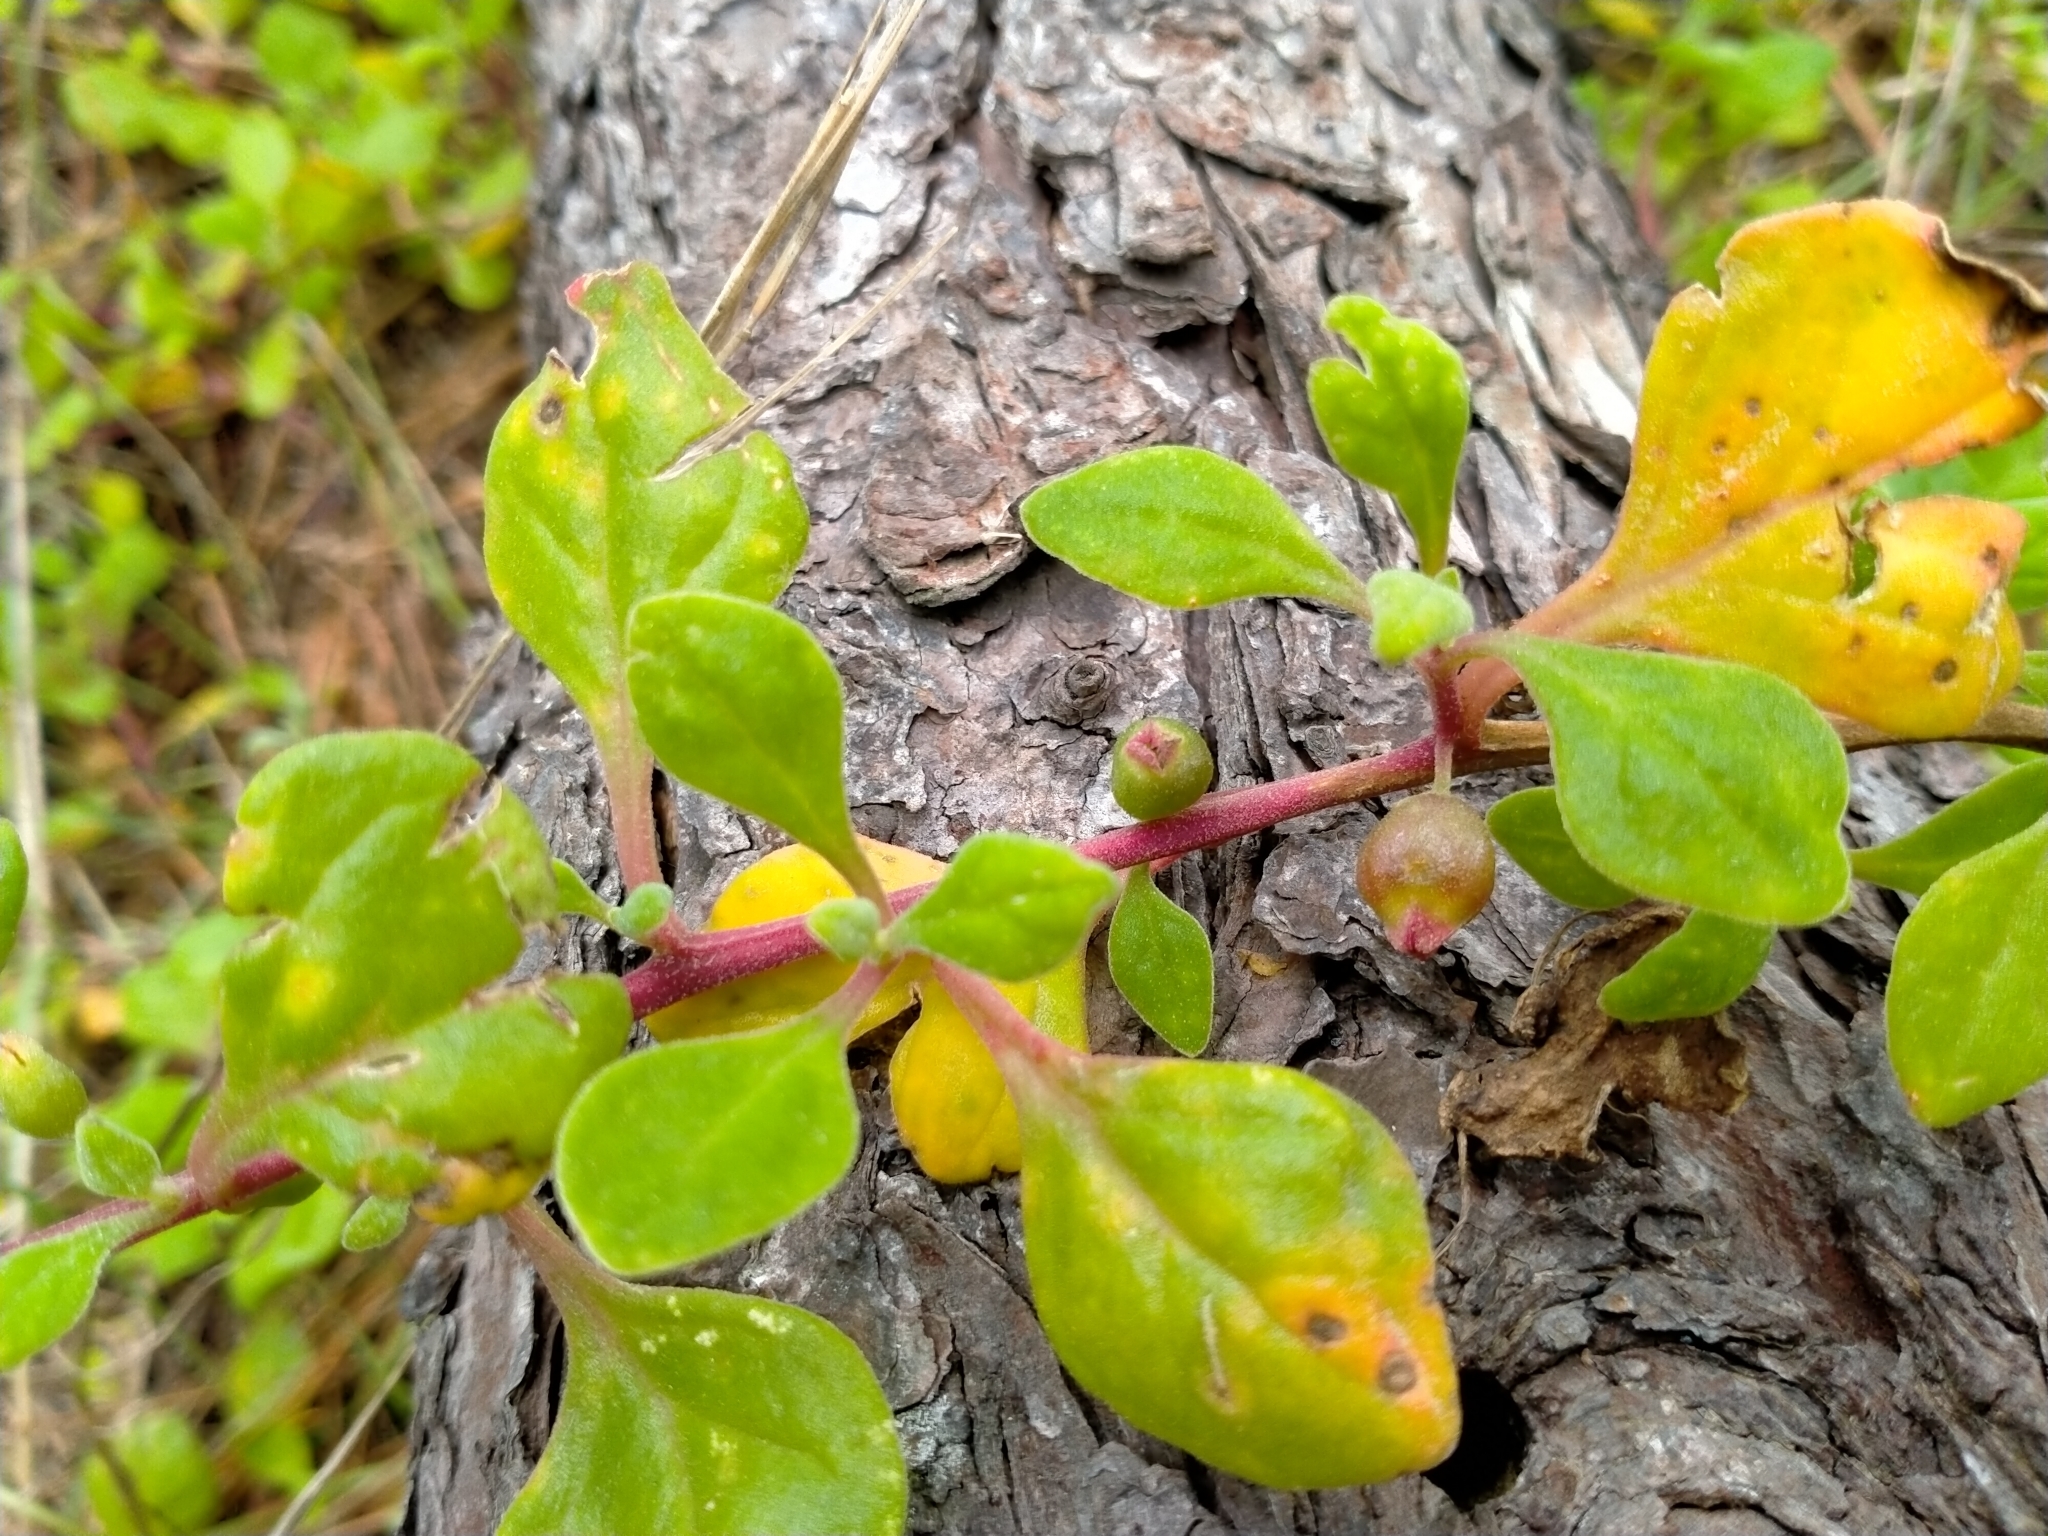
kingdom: Plantae
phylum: Tracheophyta
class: Magnoliopsida
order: Caryophyllales
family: Aizoaceae
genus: Tetragonia
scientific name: Tetragonia implexicoma
